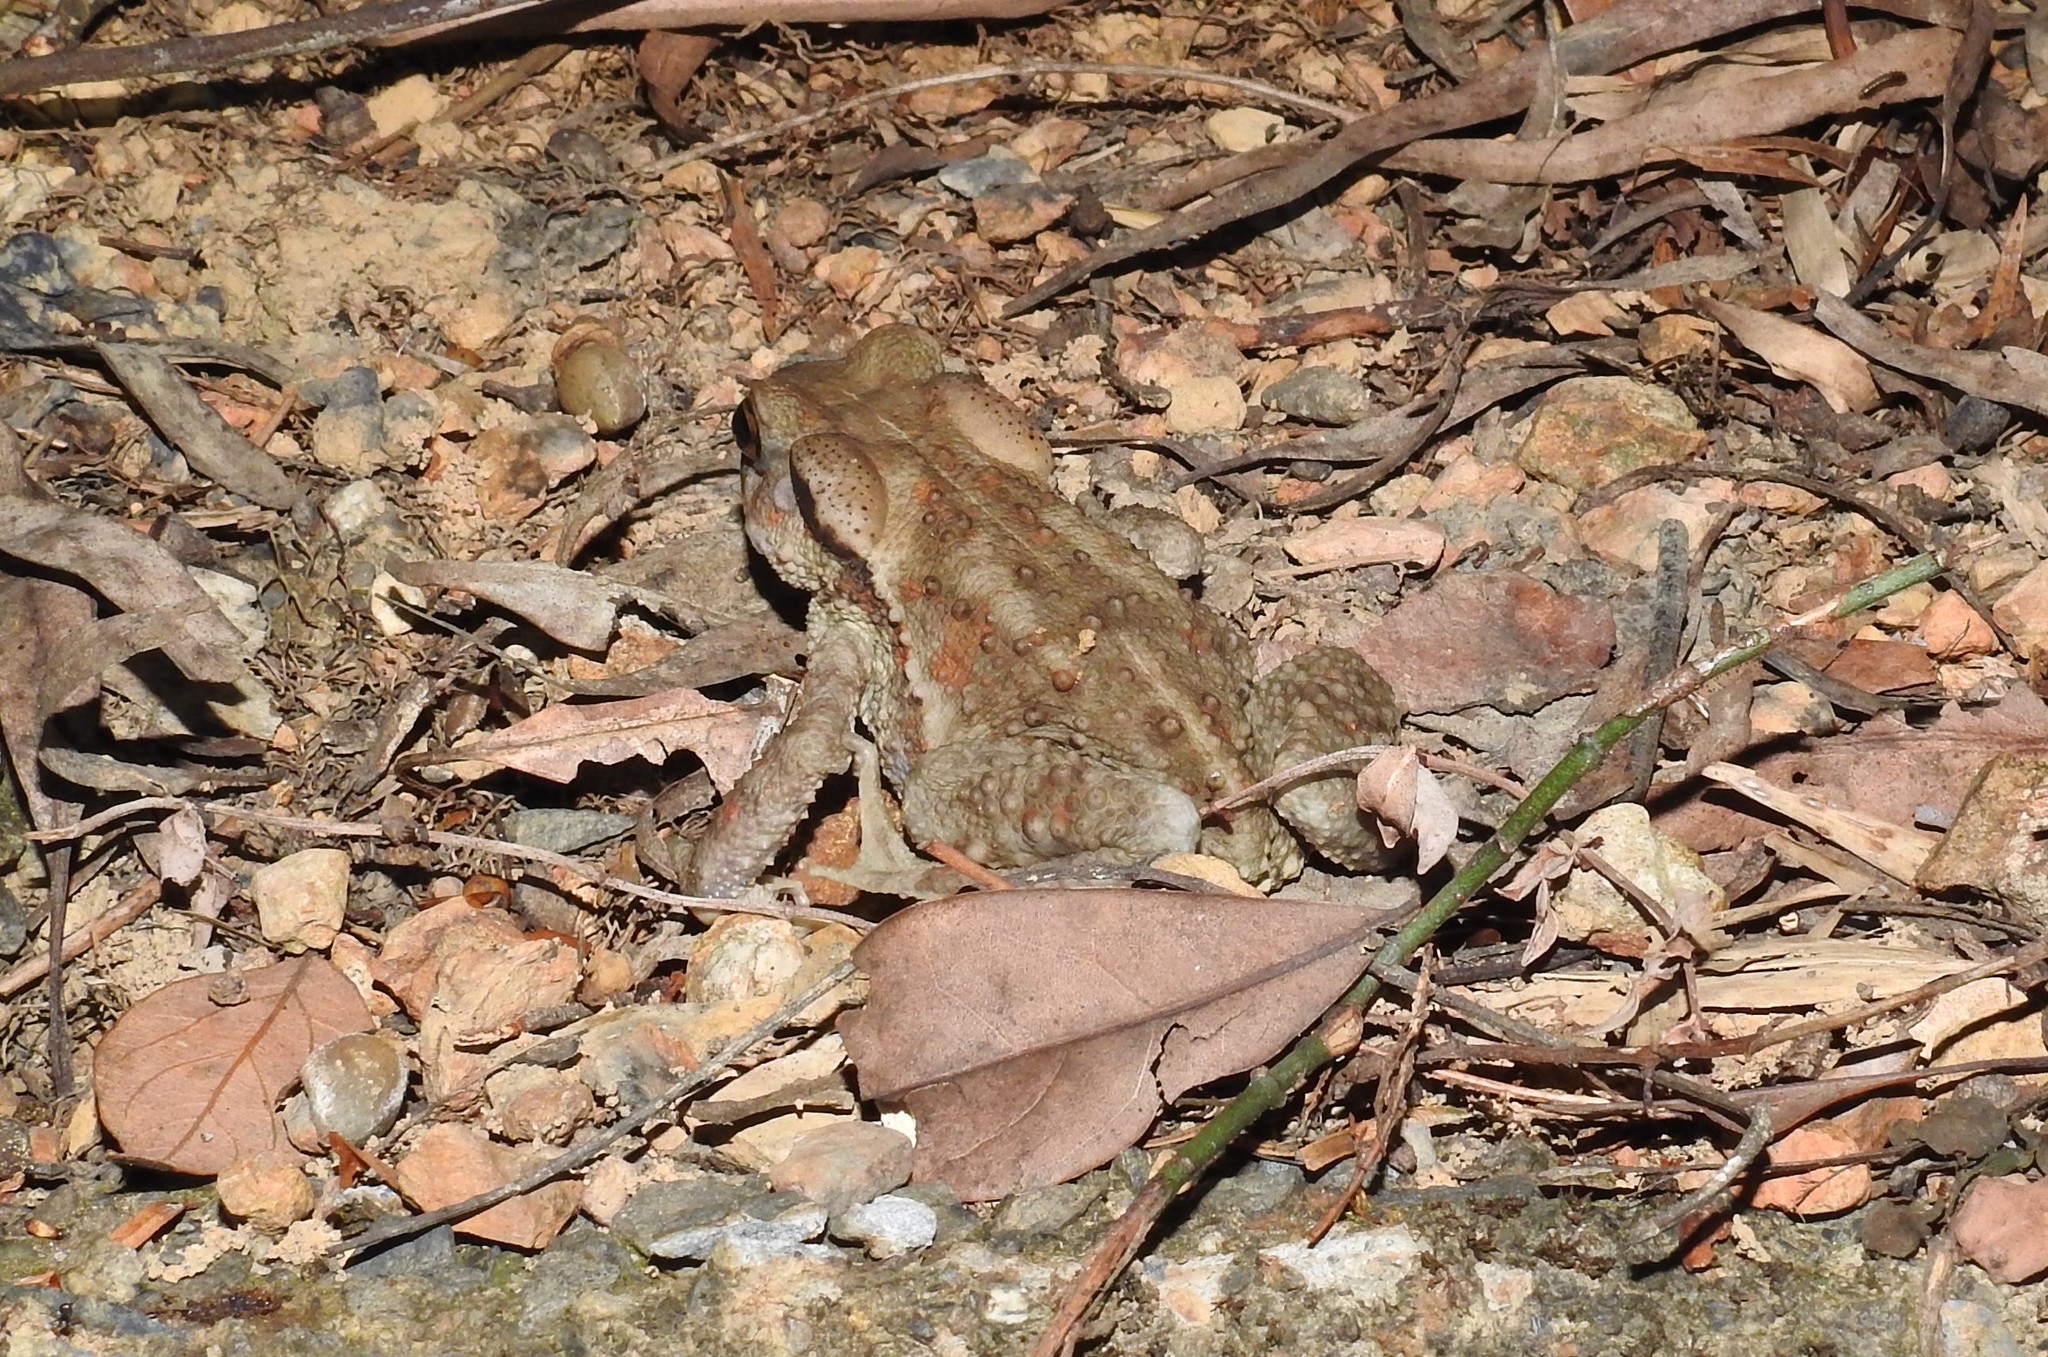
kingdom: Animalia
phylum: Chordata
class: Amphibia
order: Anura
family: Bufonidae
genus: Bufo
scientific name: Bufo bankorensis
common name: Bankor toad
